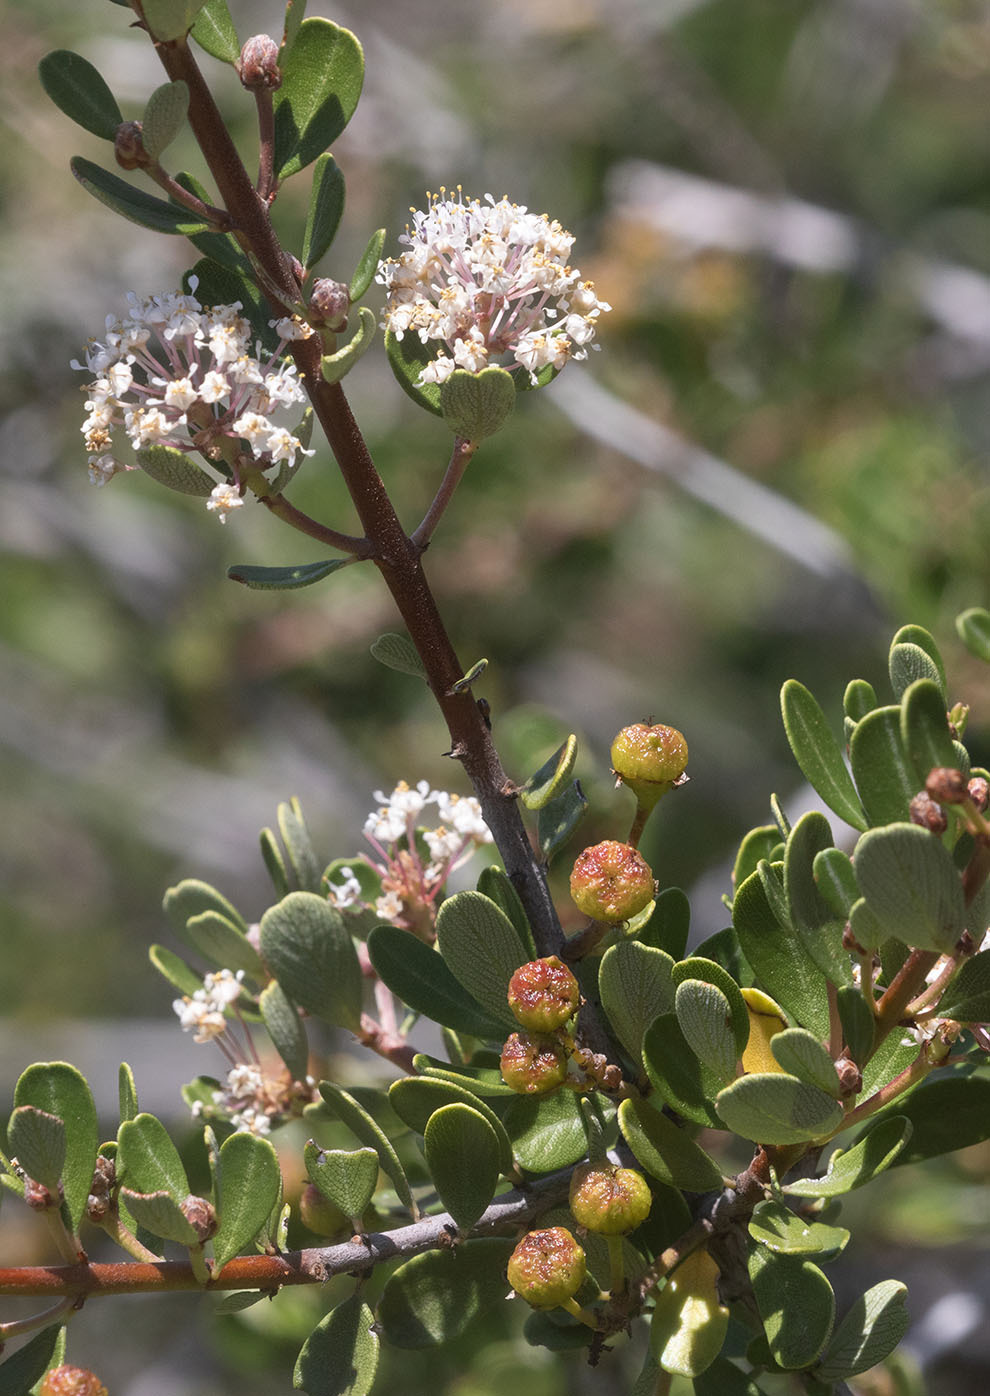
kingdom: Plantae
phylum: Tracheophyta
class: Magnoliopsida
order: Rosales
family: Rhamnaceae
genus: Ceanothus
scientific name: Ceanothus cuneatus
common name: Cuneate ceanothus
